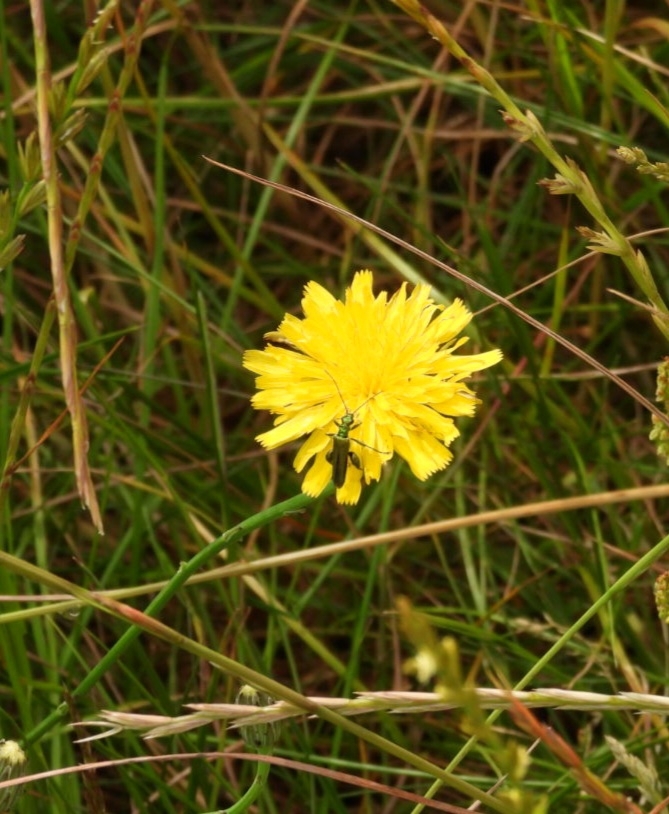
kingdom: Animalia
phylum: Arthropoda
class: Insecta
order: Coleoptera
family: Oedemeridae
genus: Oedemera
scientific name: Oedemera nobilis
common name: Swollen-thighed beetle
